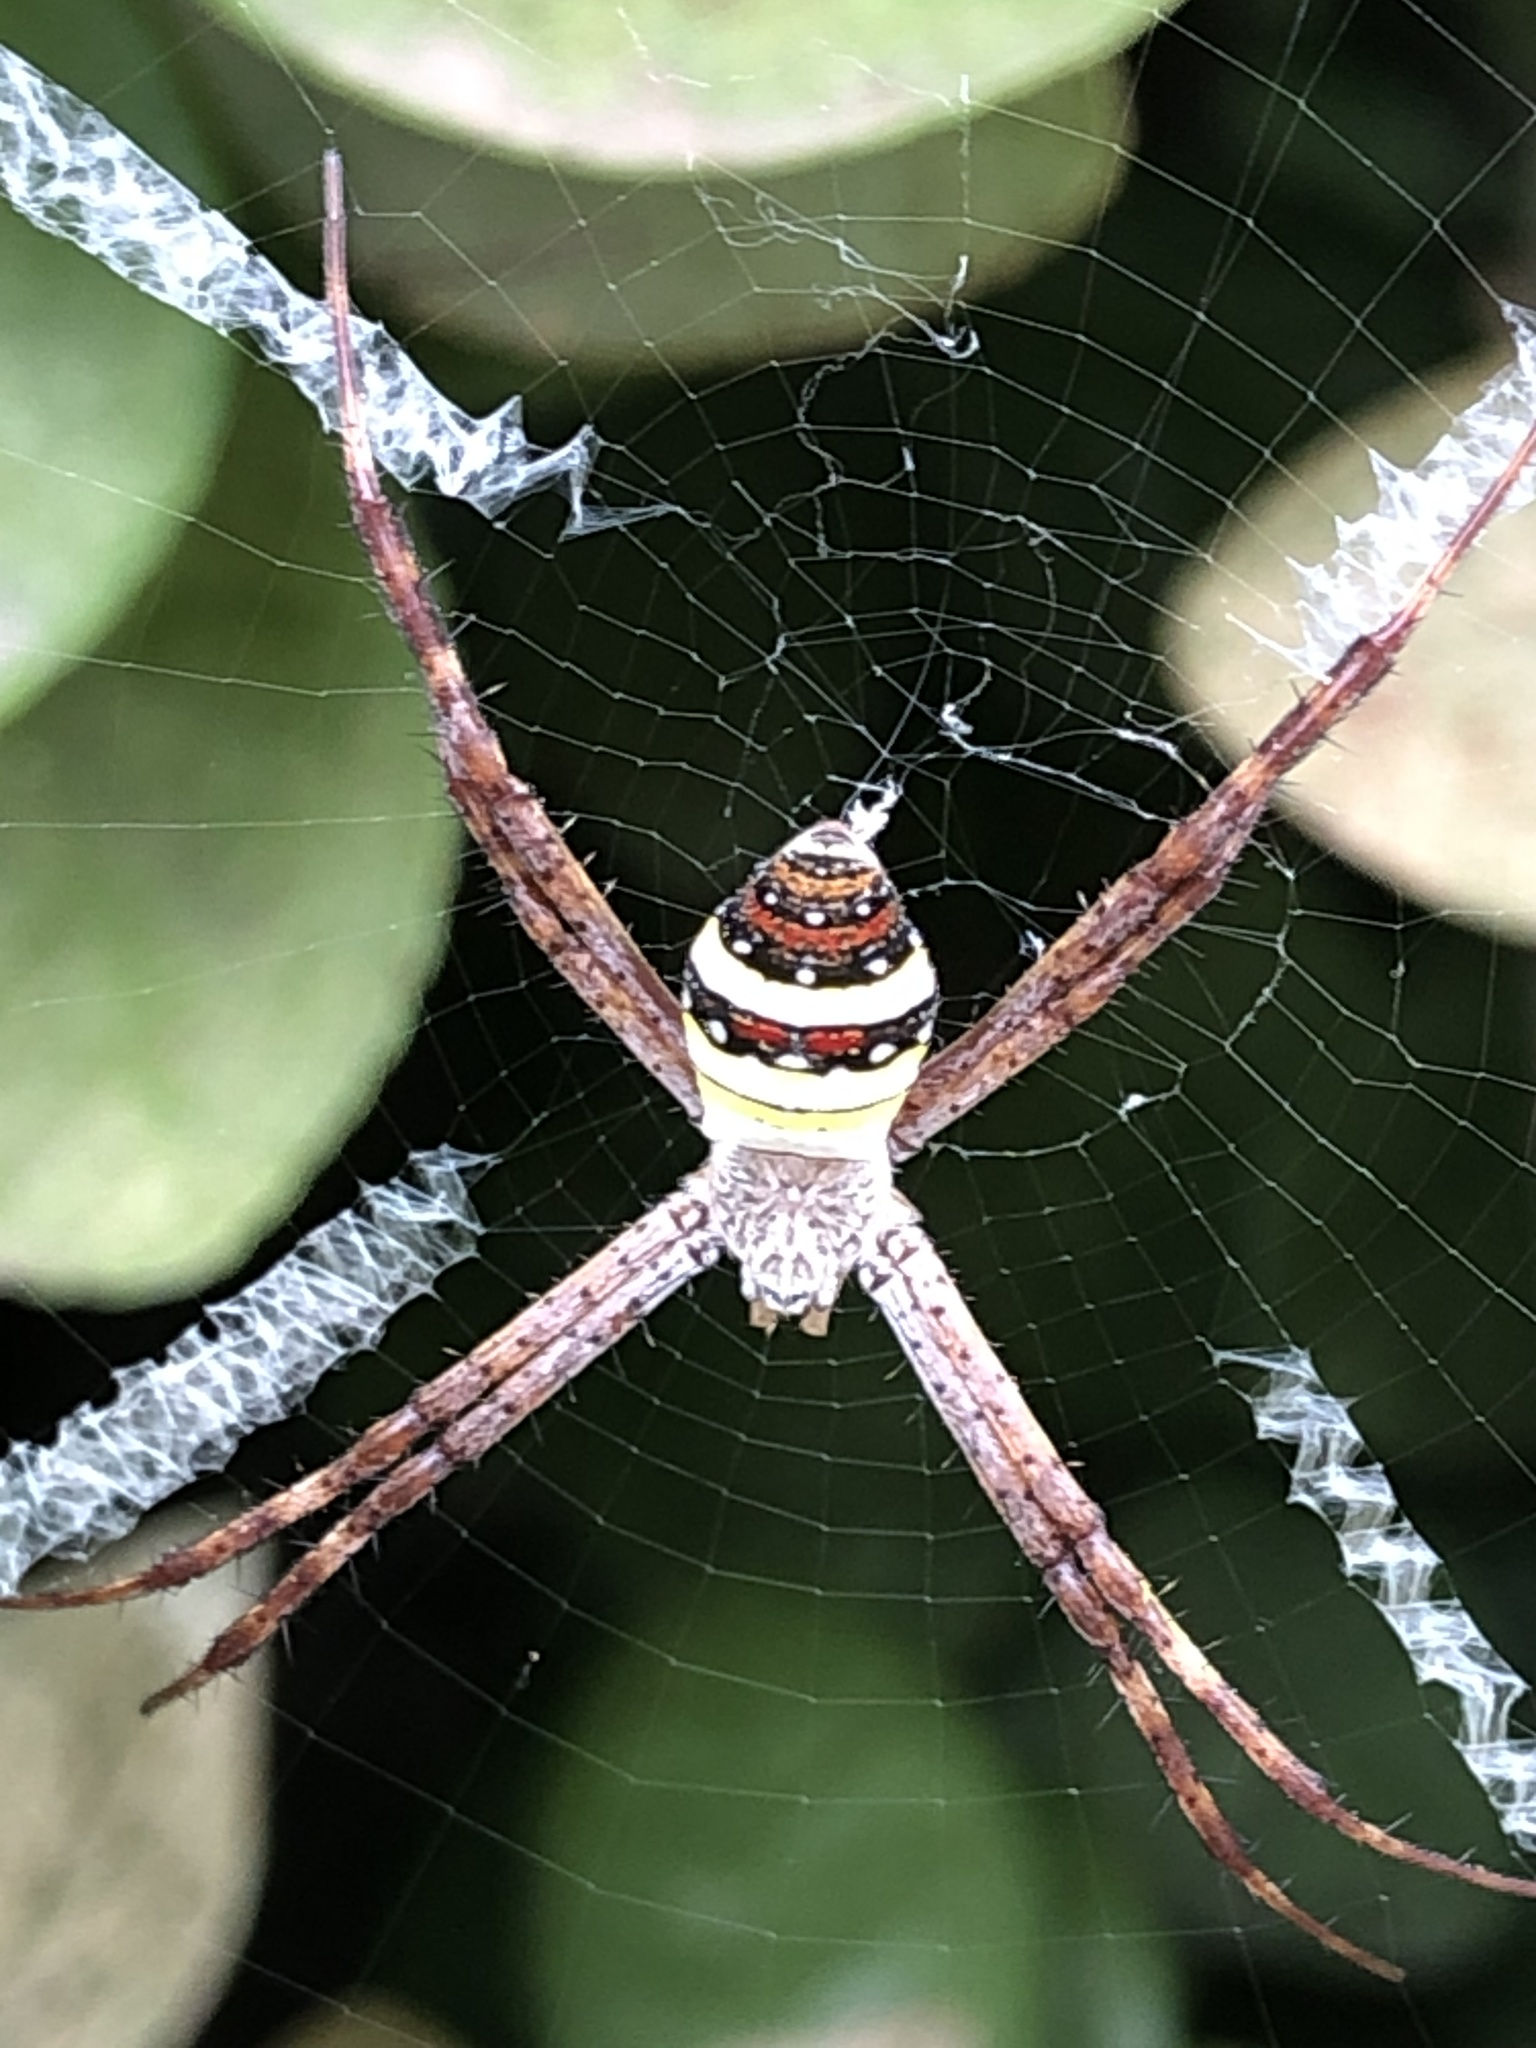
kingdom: Animalia
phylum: Arthropoda
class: Arachnida
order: Araneae
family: Araneidae
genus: Argiope
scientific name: Argiope minuta
